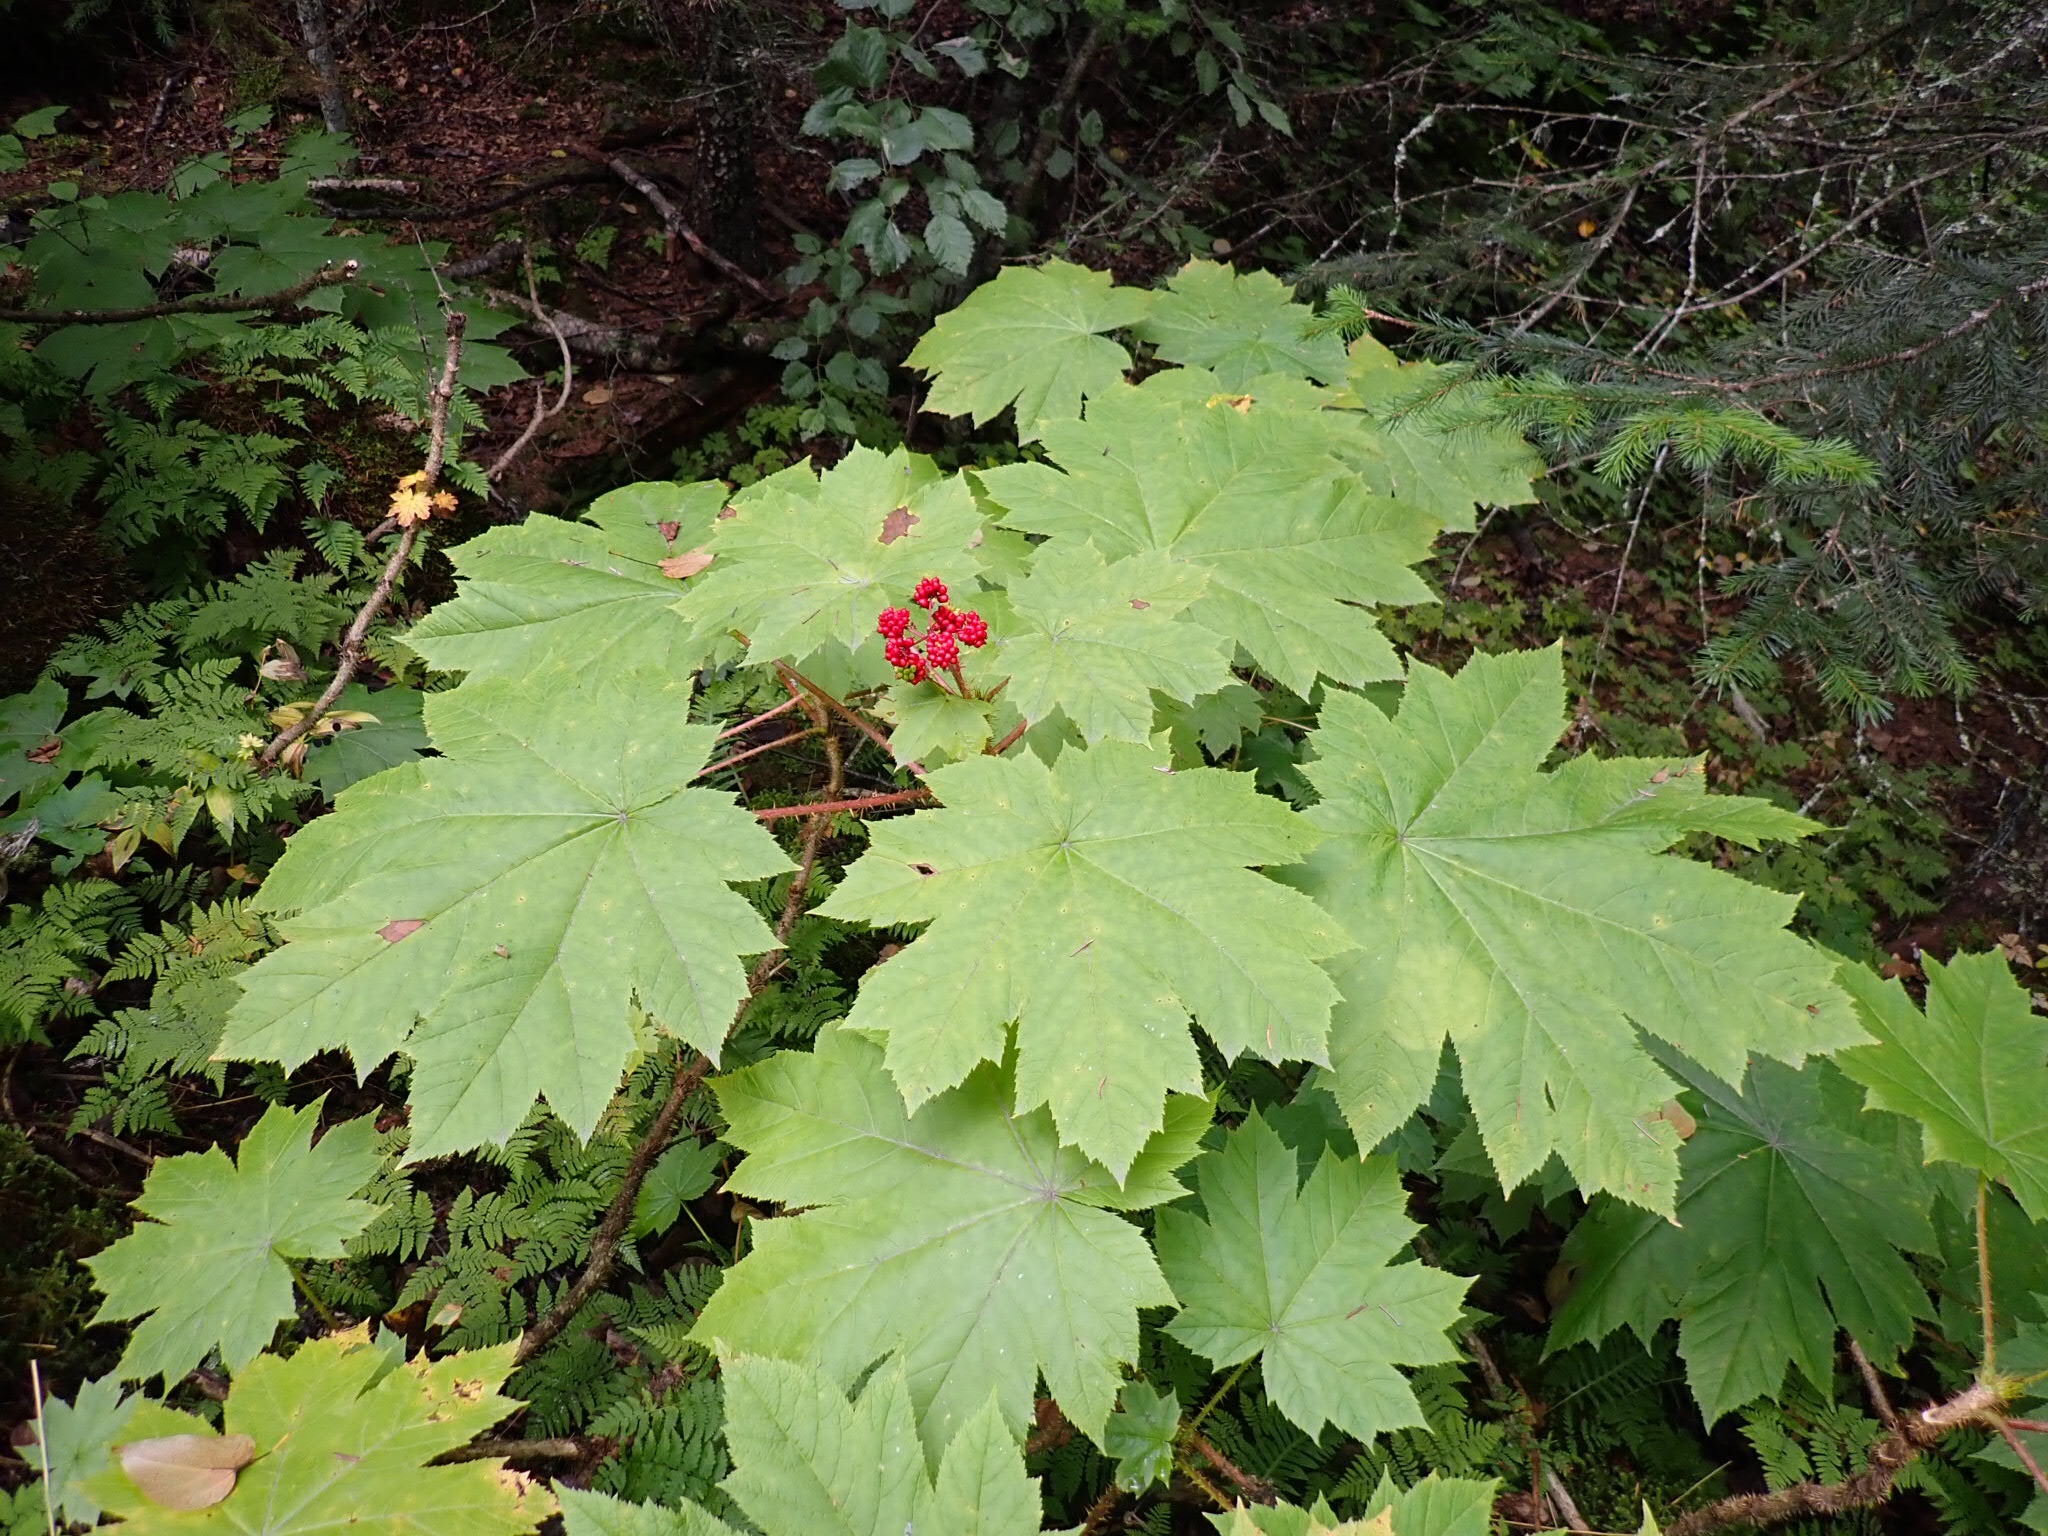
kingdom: Plantae
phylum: Tracheophyta
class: Magnoliopsida
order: Apiales
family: Araliaceae
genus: Oplopanax
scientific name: Oplopanax horridus
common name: Devil's walking-stick
